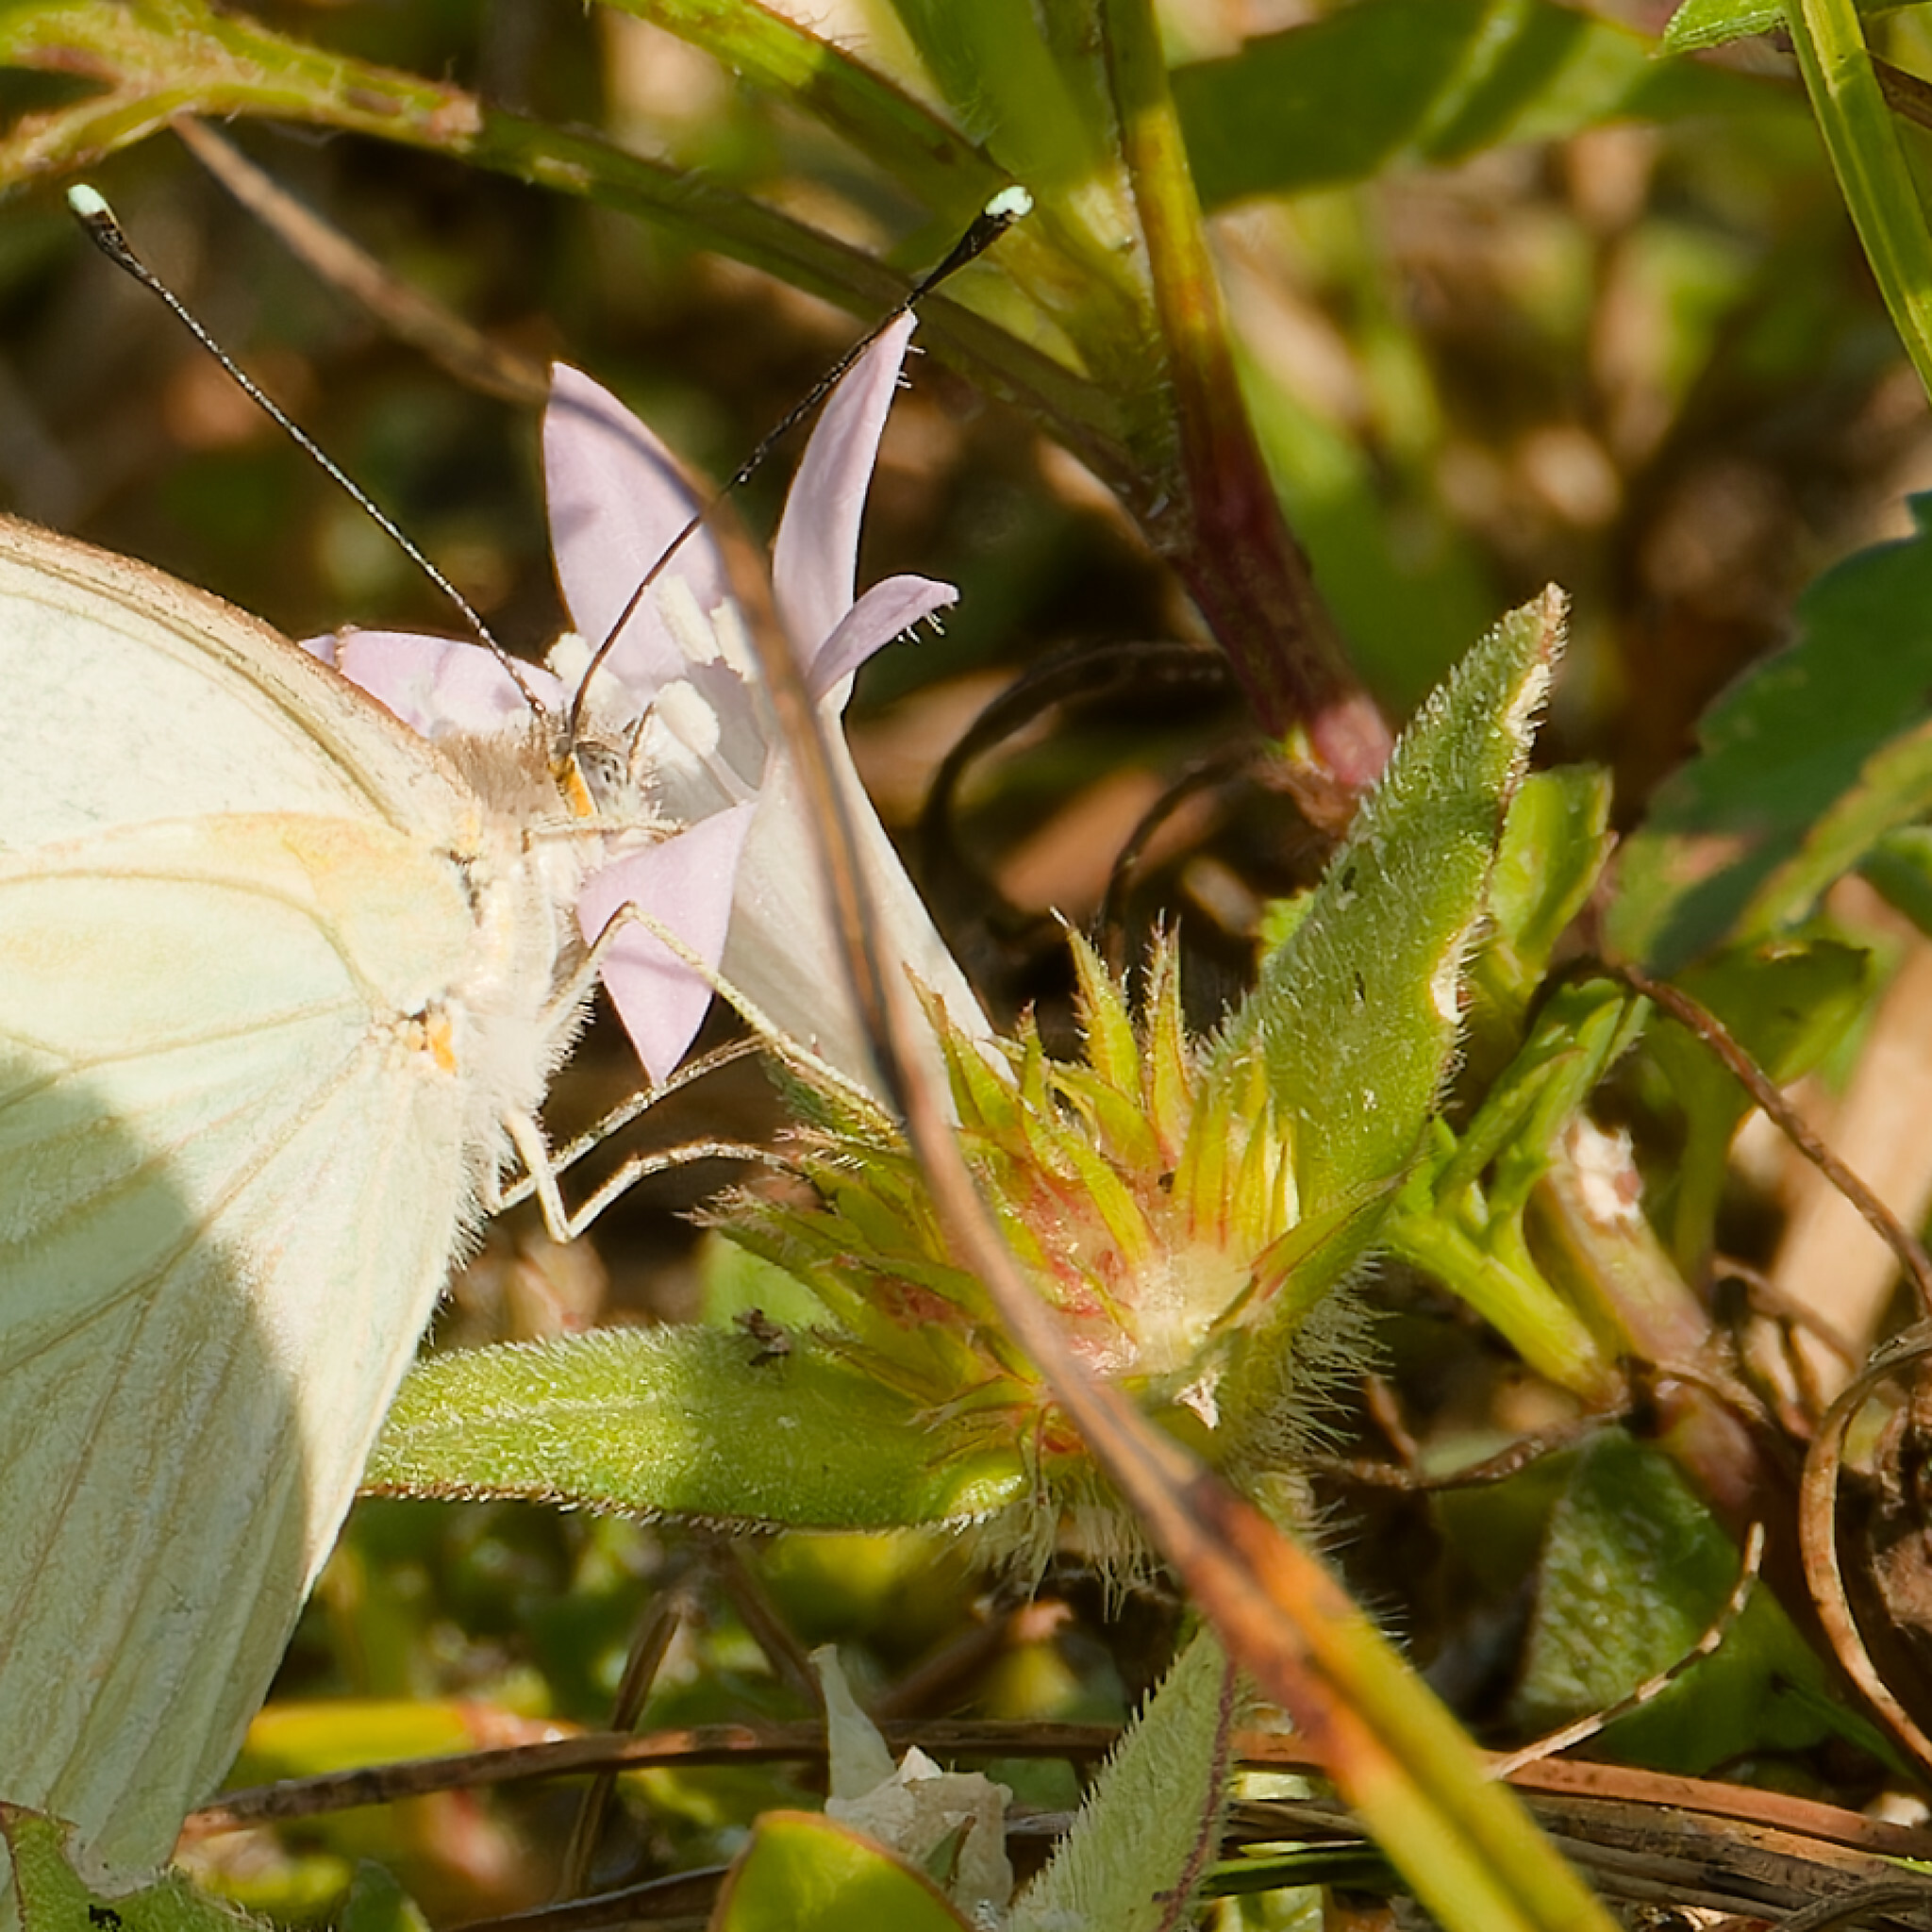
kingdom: Plantae
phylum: Tracheophyta
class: Magnoliopsida
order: Gentianales
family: Rubiaceae
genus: Richardia
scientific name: Richardia grandiflora
